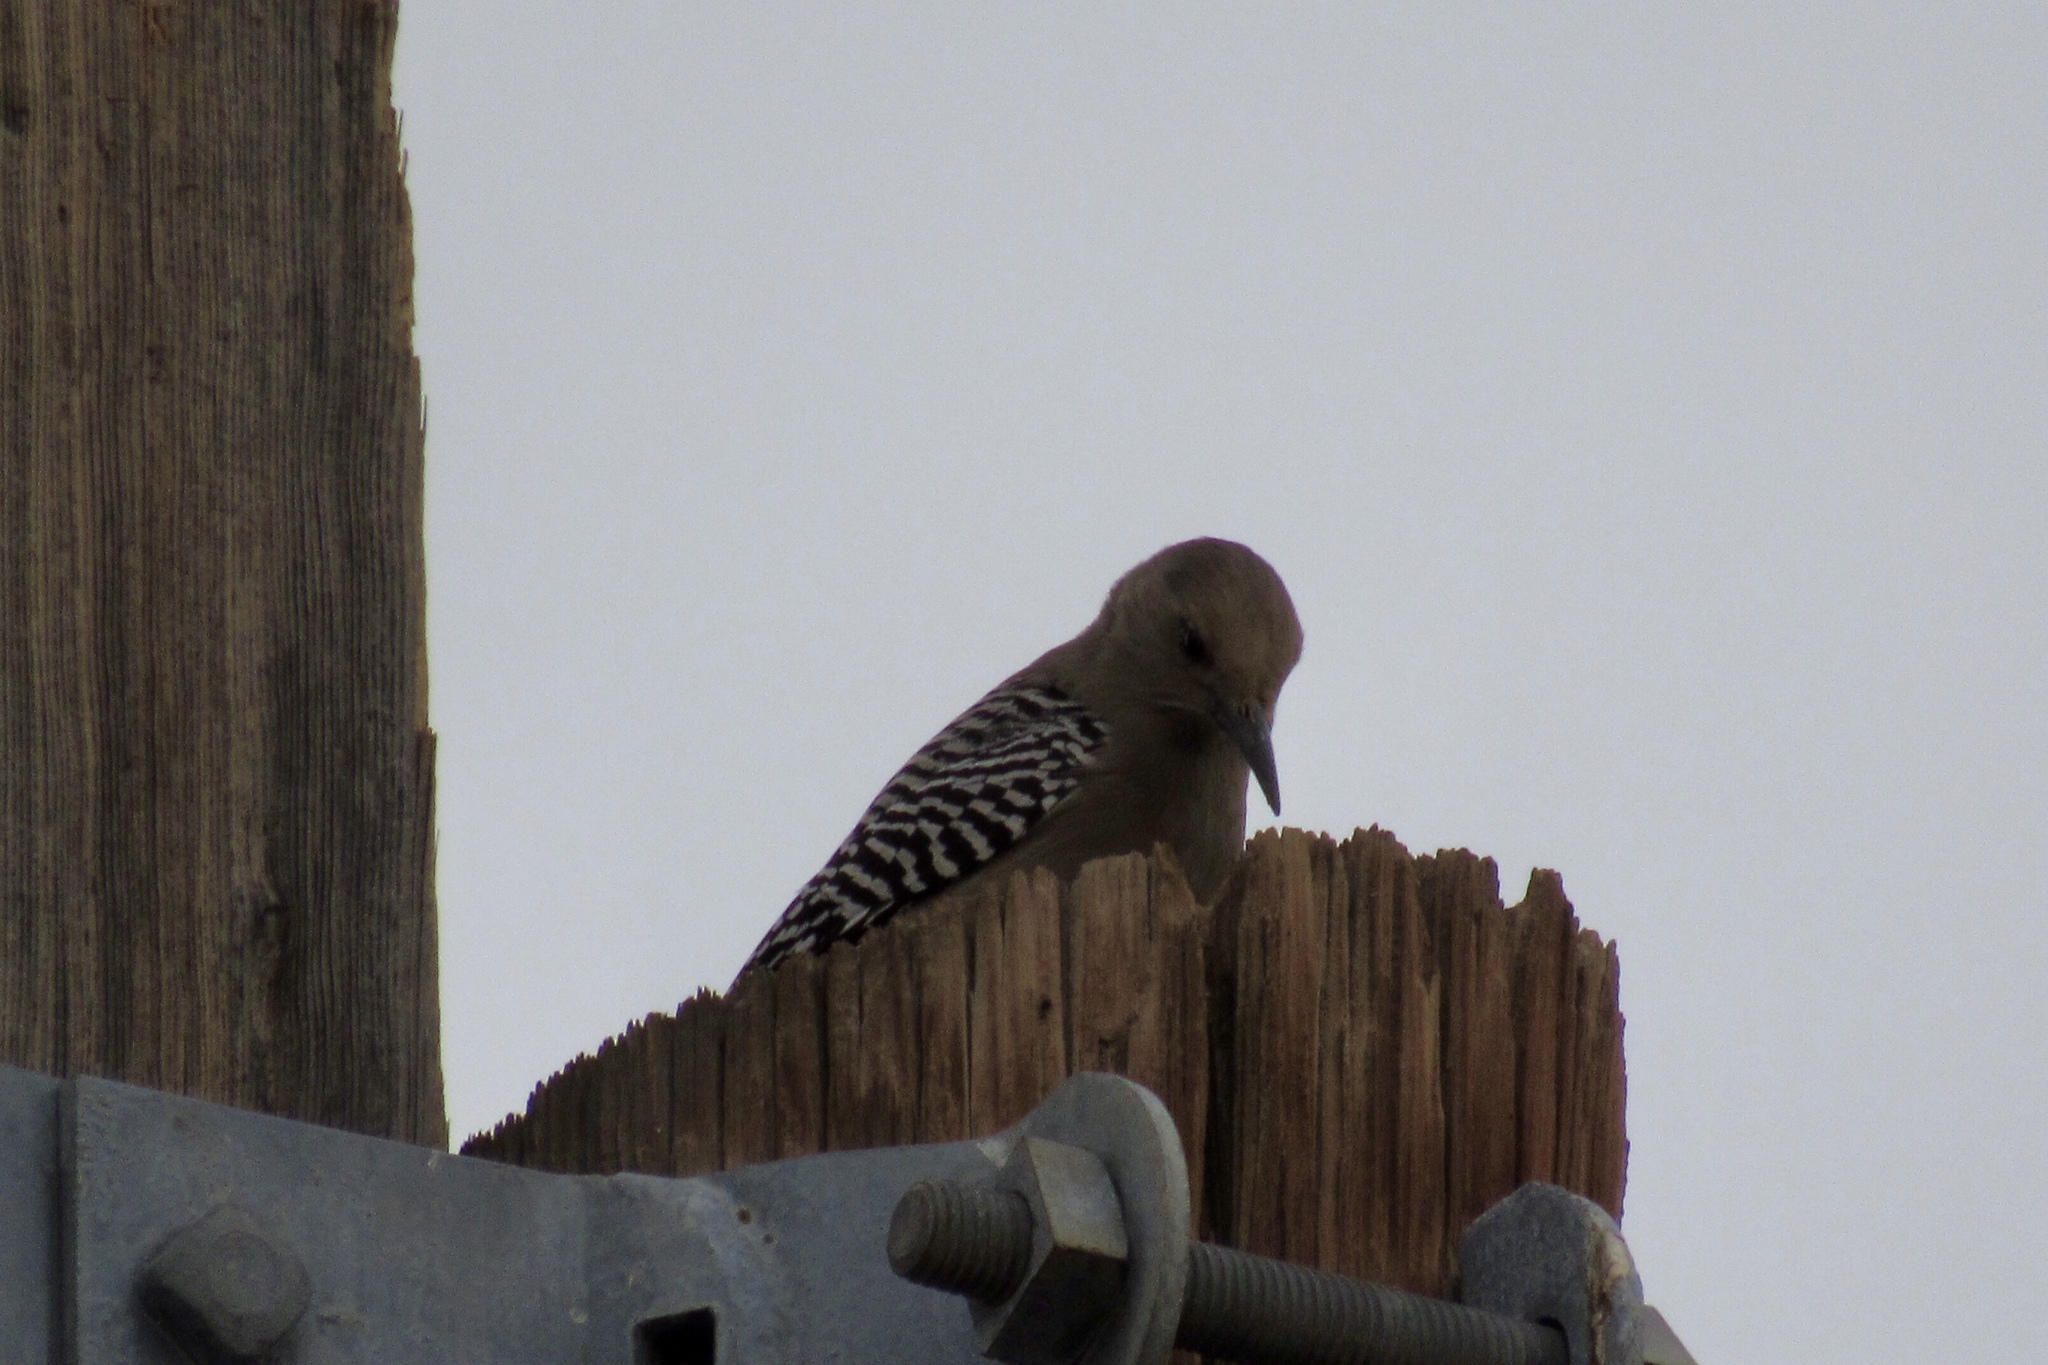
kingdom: Animalia
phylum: Chordata
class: Aves
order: Piciformes
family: Picidae
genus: Melanerpes
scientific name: Melanerpes uropygialis
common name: Gila woodpecker
